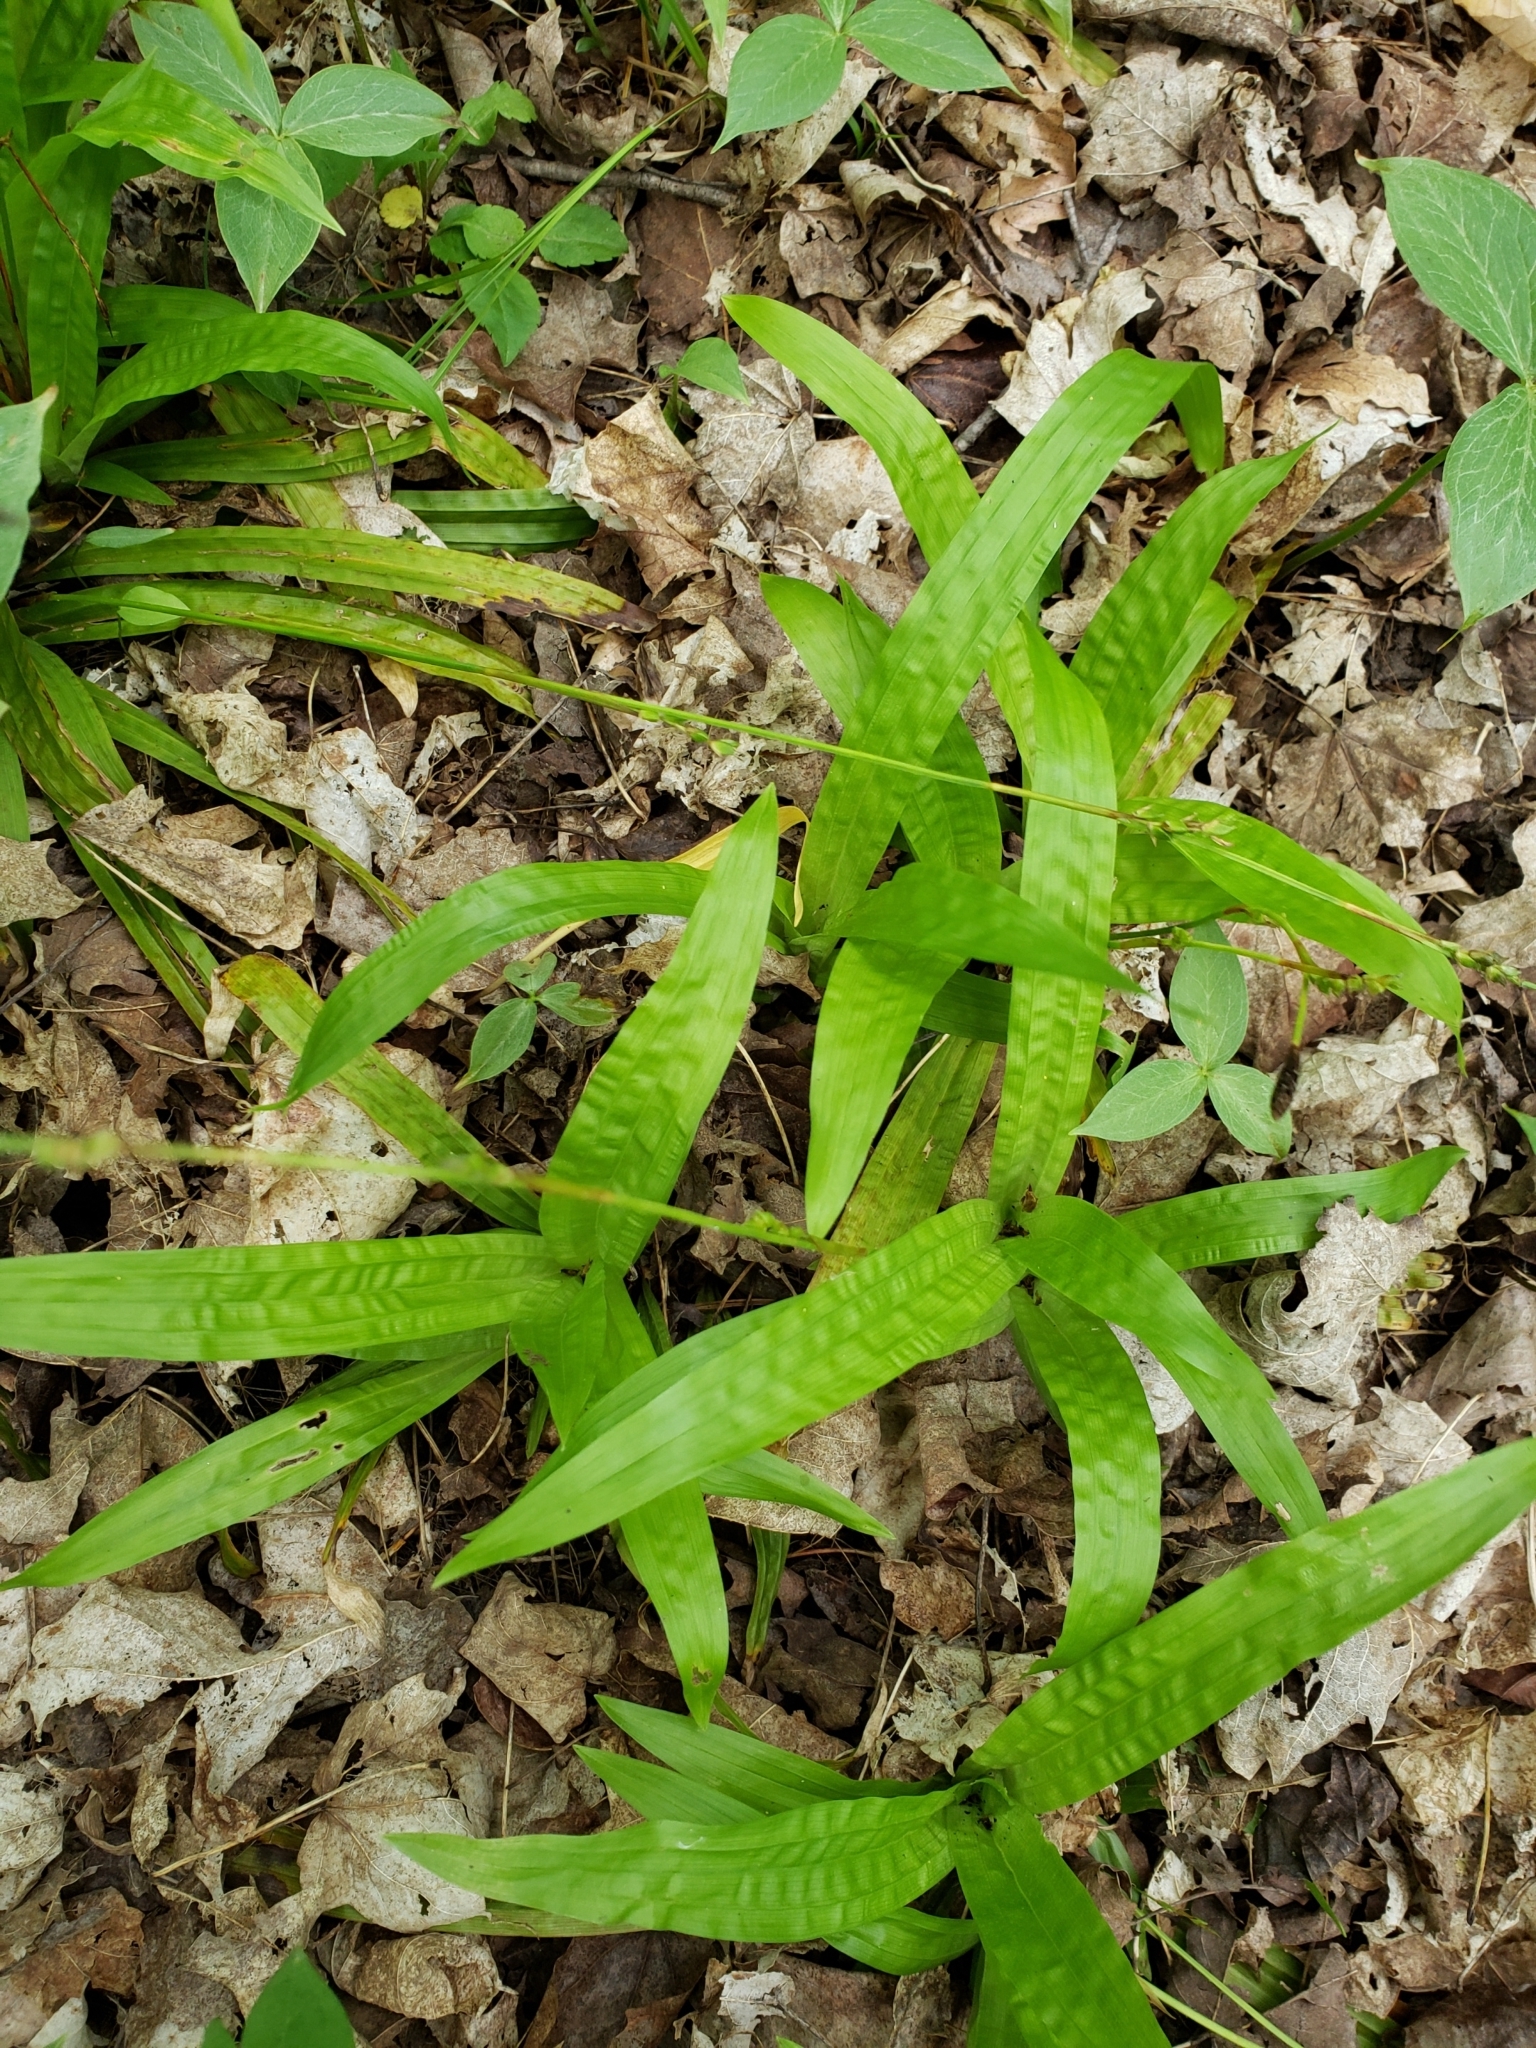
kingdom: Plantae
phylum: Tracheophyta
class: Liliopsida
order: Poales
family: Cyperaceae
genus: Carex
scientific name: Carex plantaginea
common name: Plantain-leaved sedge
